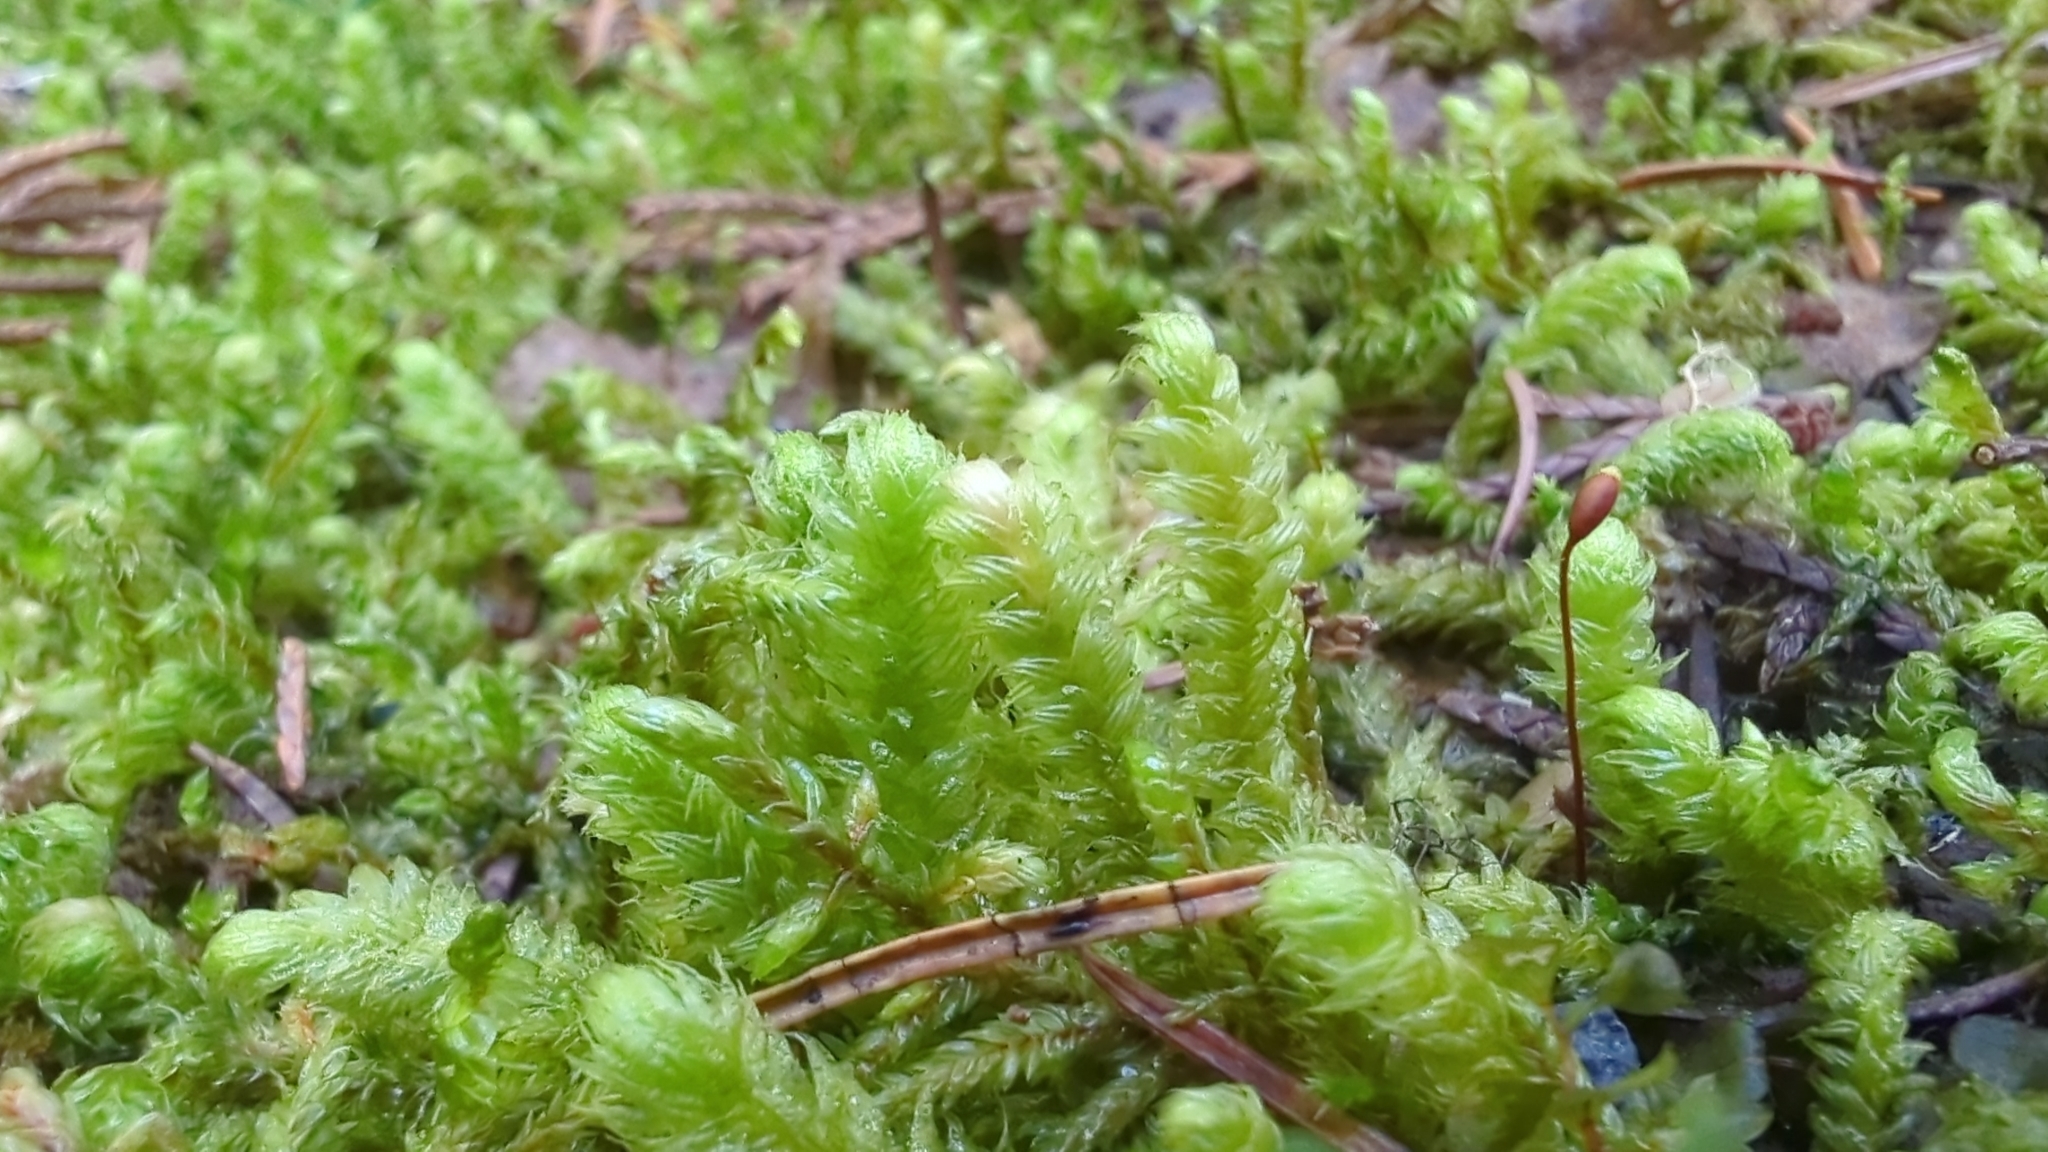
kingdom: Plantae
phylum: Bryophyta
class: Bryopsida
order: Hypnales
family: Hylocomiaceae
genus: Rhytidiopsis
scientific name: Rhytidiopsis robusta
